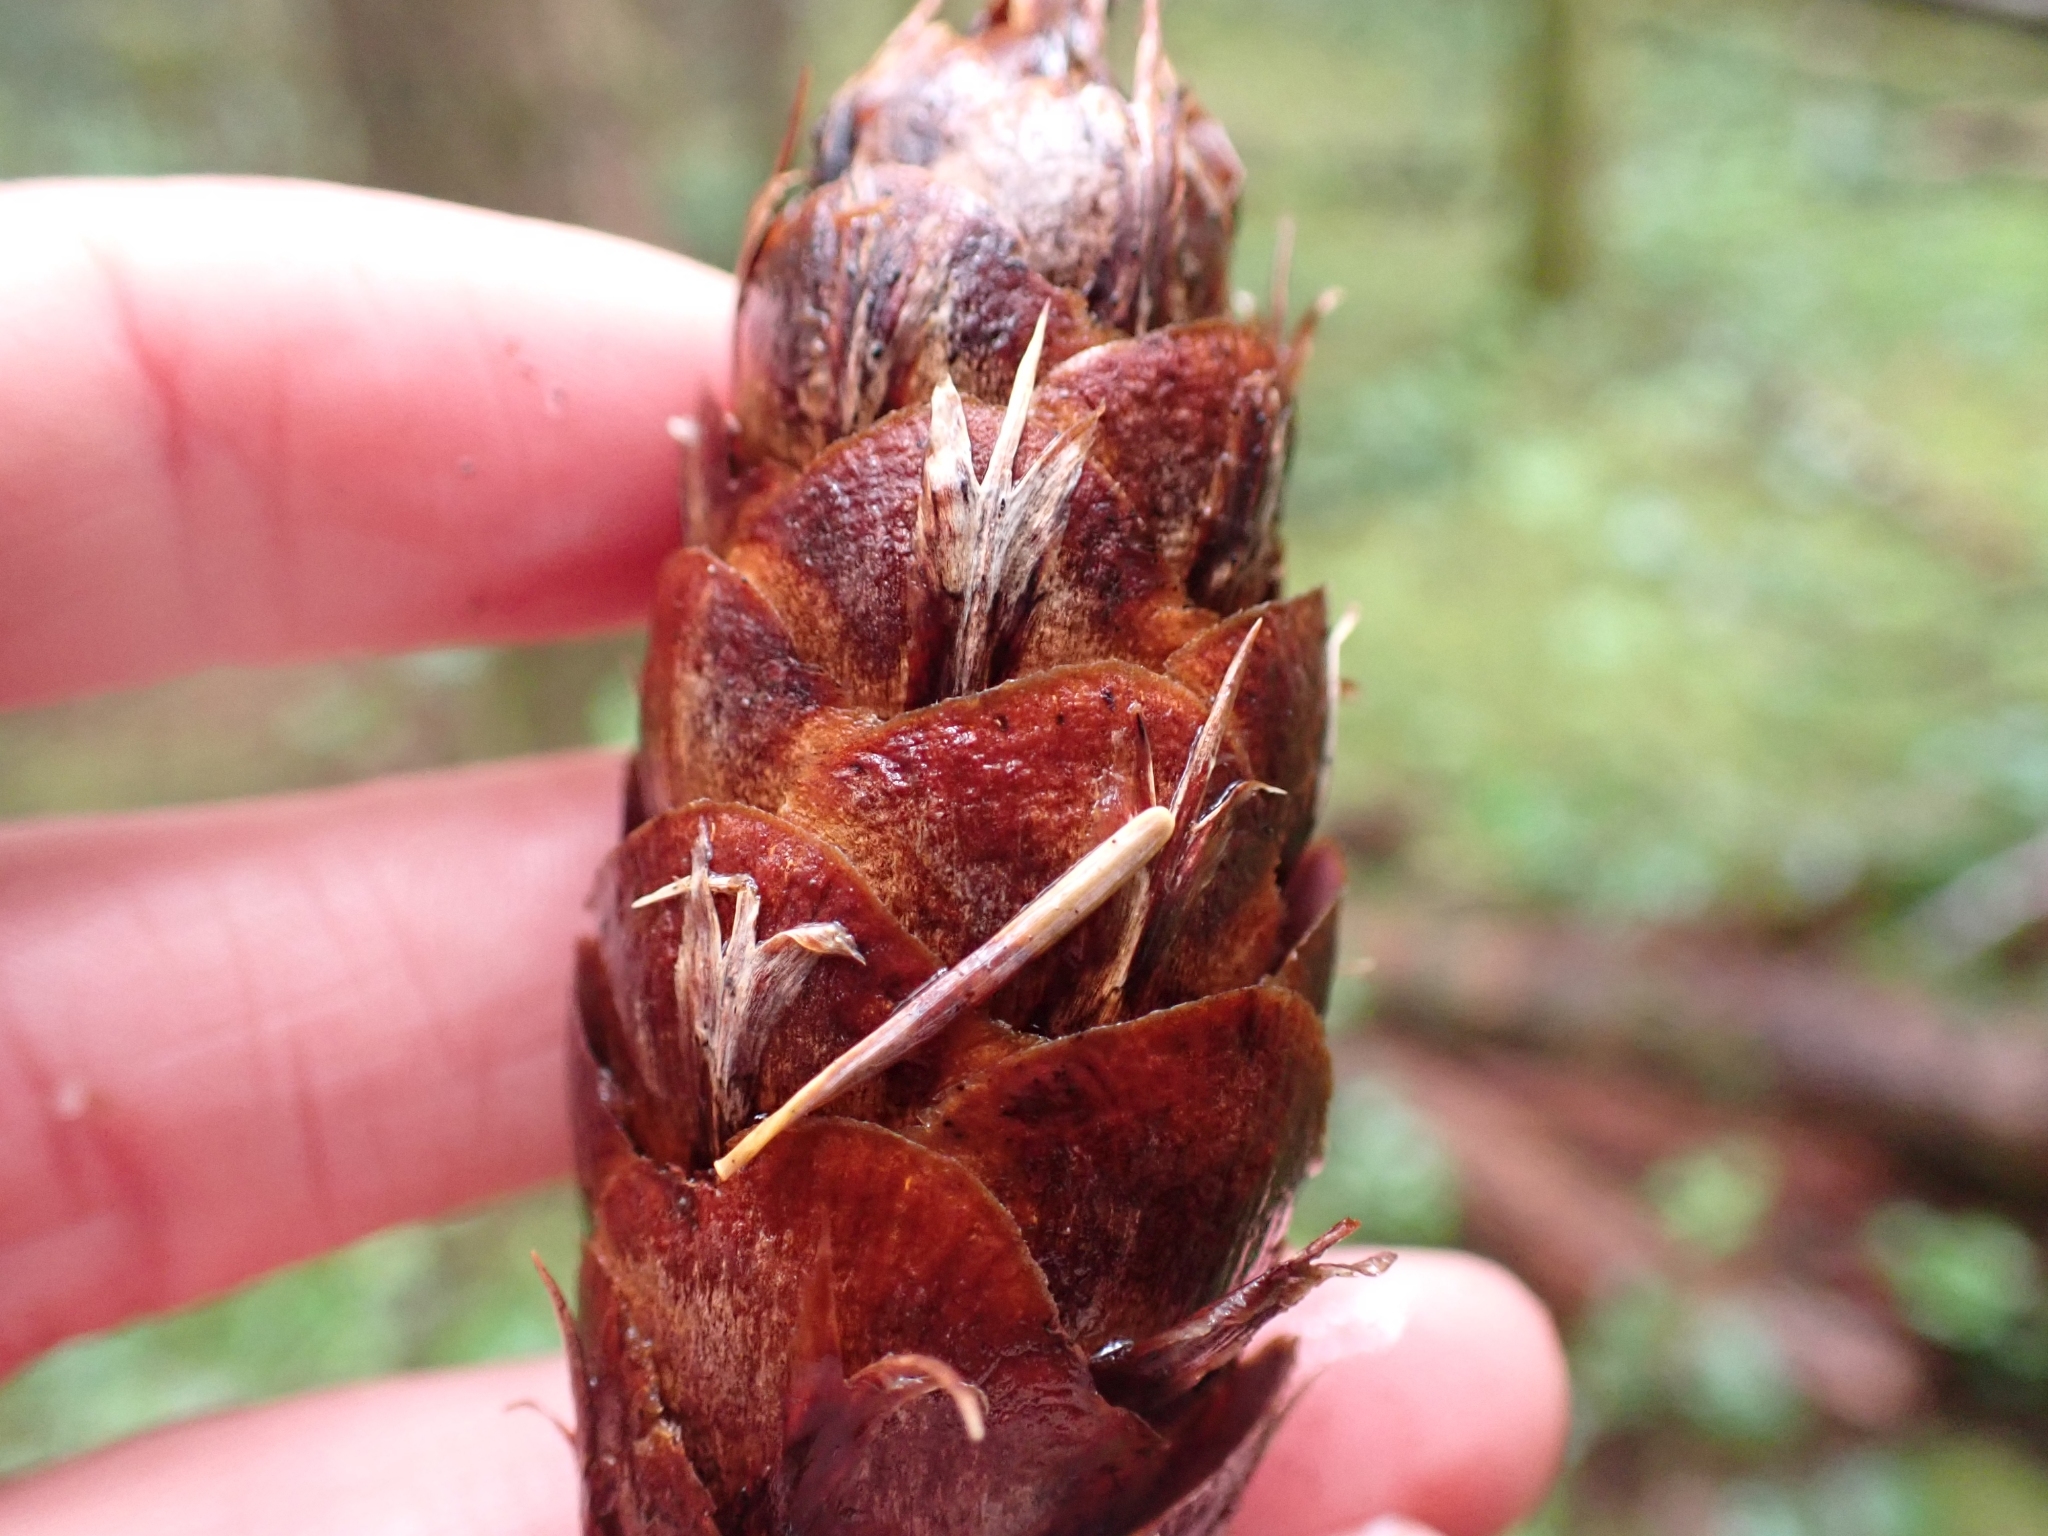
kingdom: Plantae
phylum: Tracheophyta
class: Pinopsida
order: Pinales
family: Pinaceae
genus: Pseudotsuga
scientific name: Pseudotsuga menziesii
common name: Douglas fir
